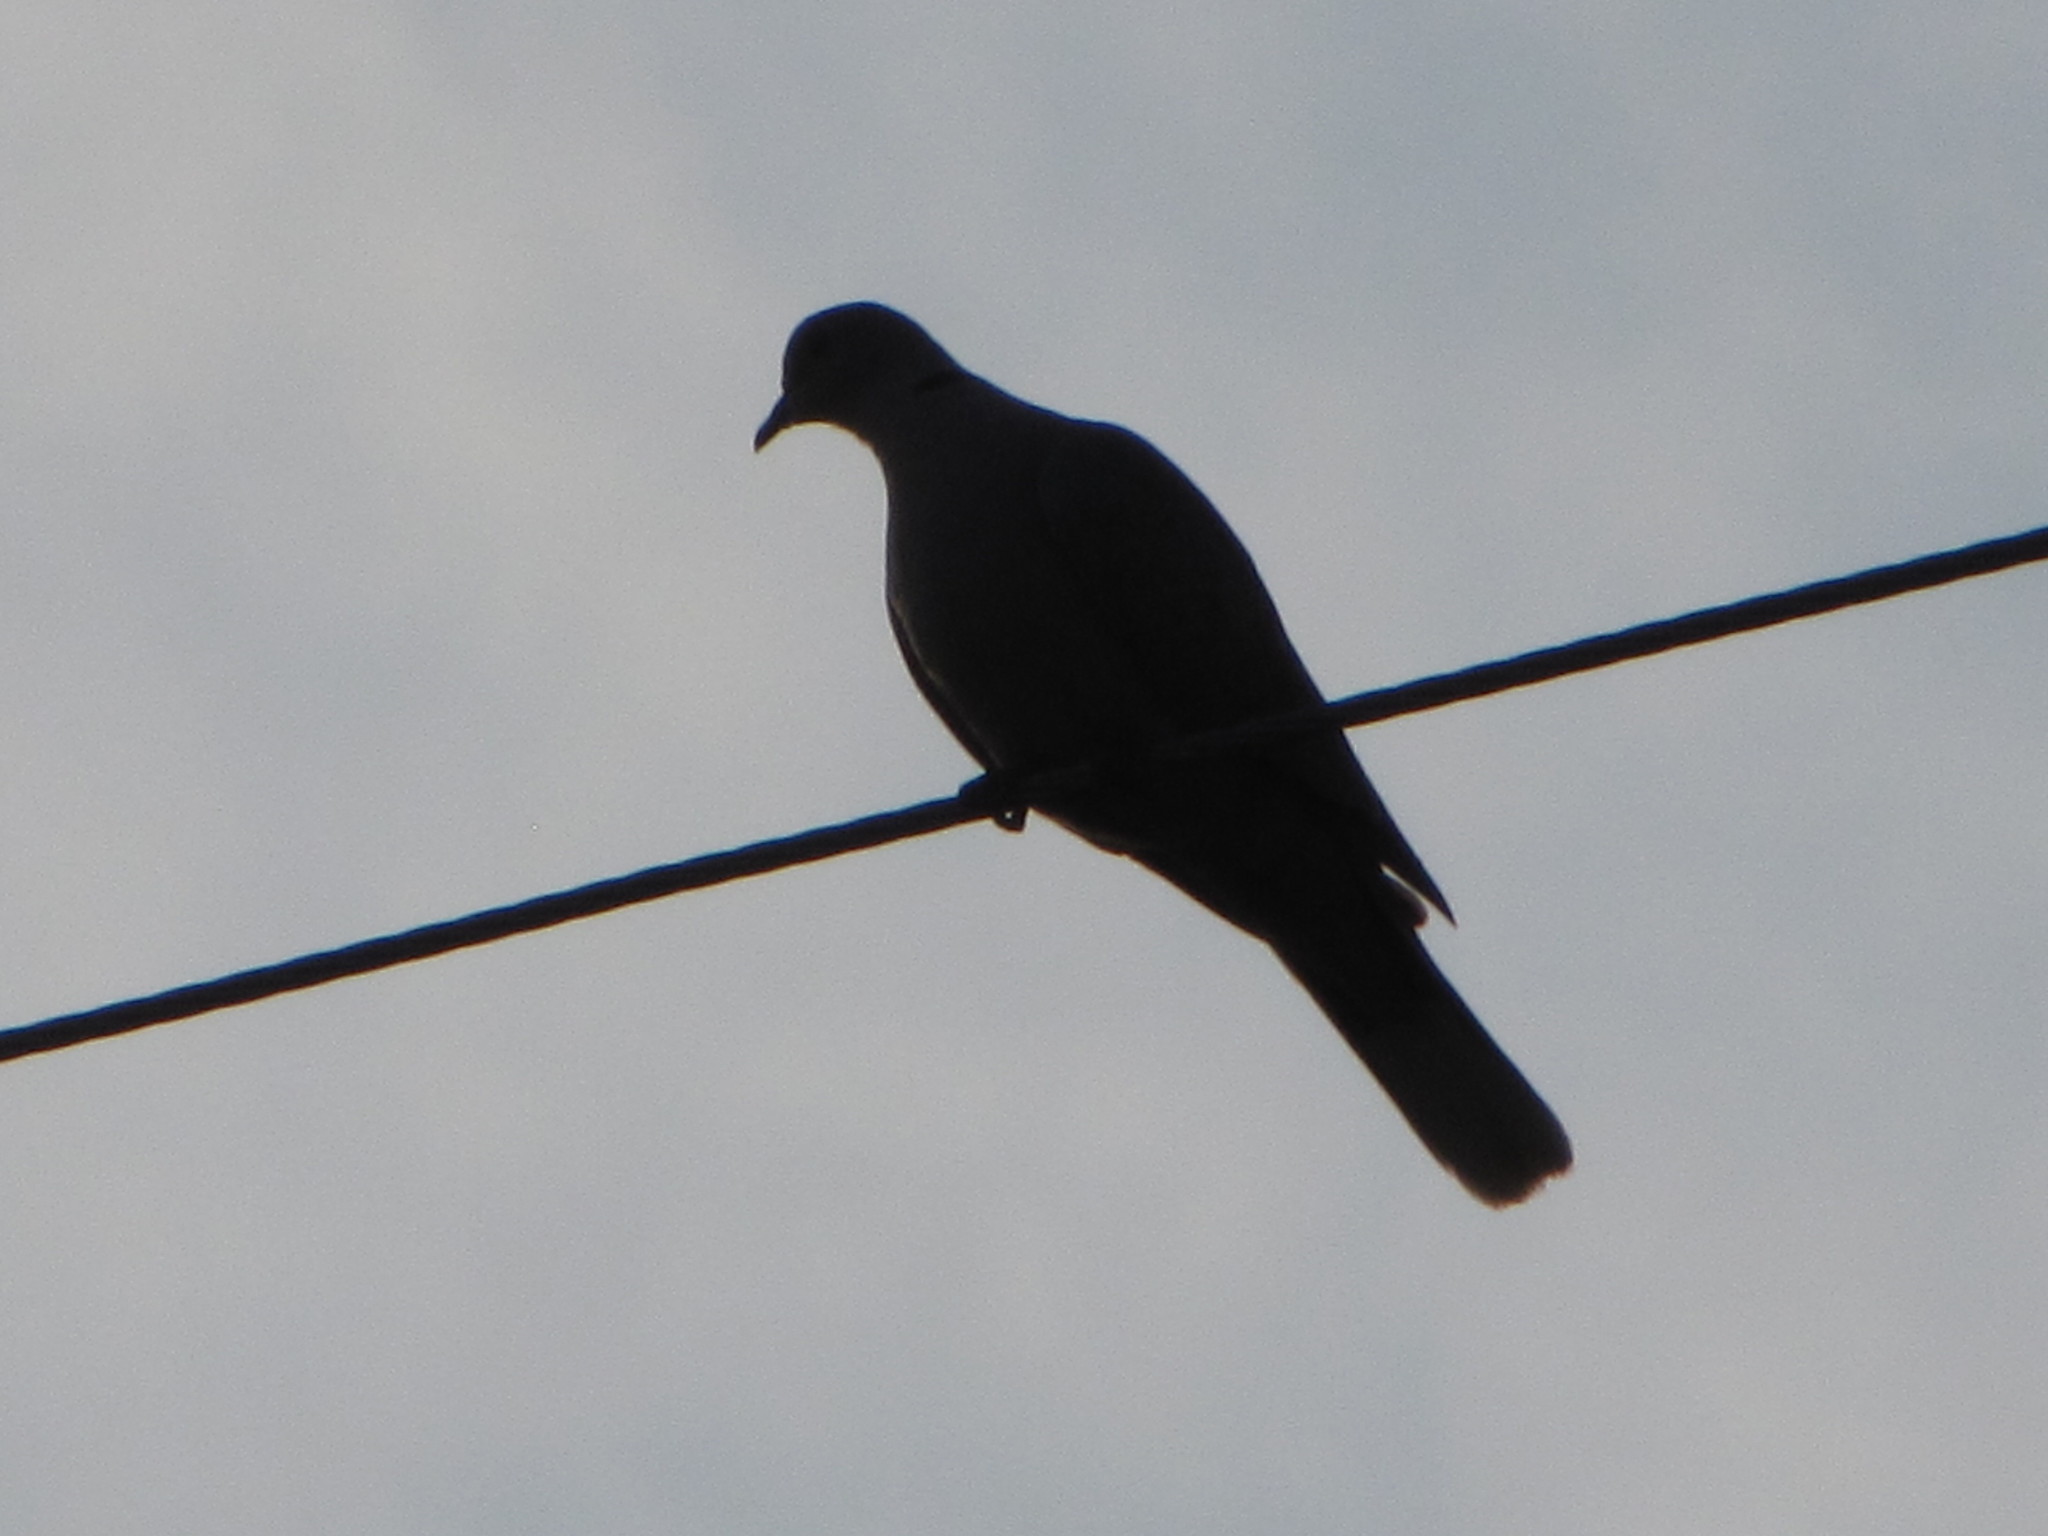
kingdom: Animalia
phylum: Chordata
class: Aves
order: Columbiformes
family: Columbidae
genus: Streptopelia
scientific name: Streptopelia decaocto
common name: Eurasian collared dove
